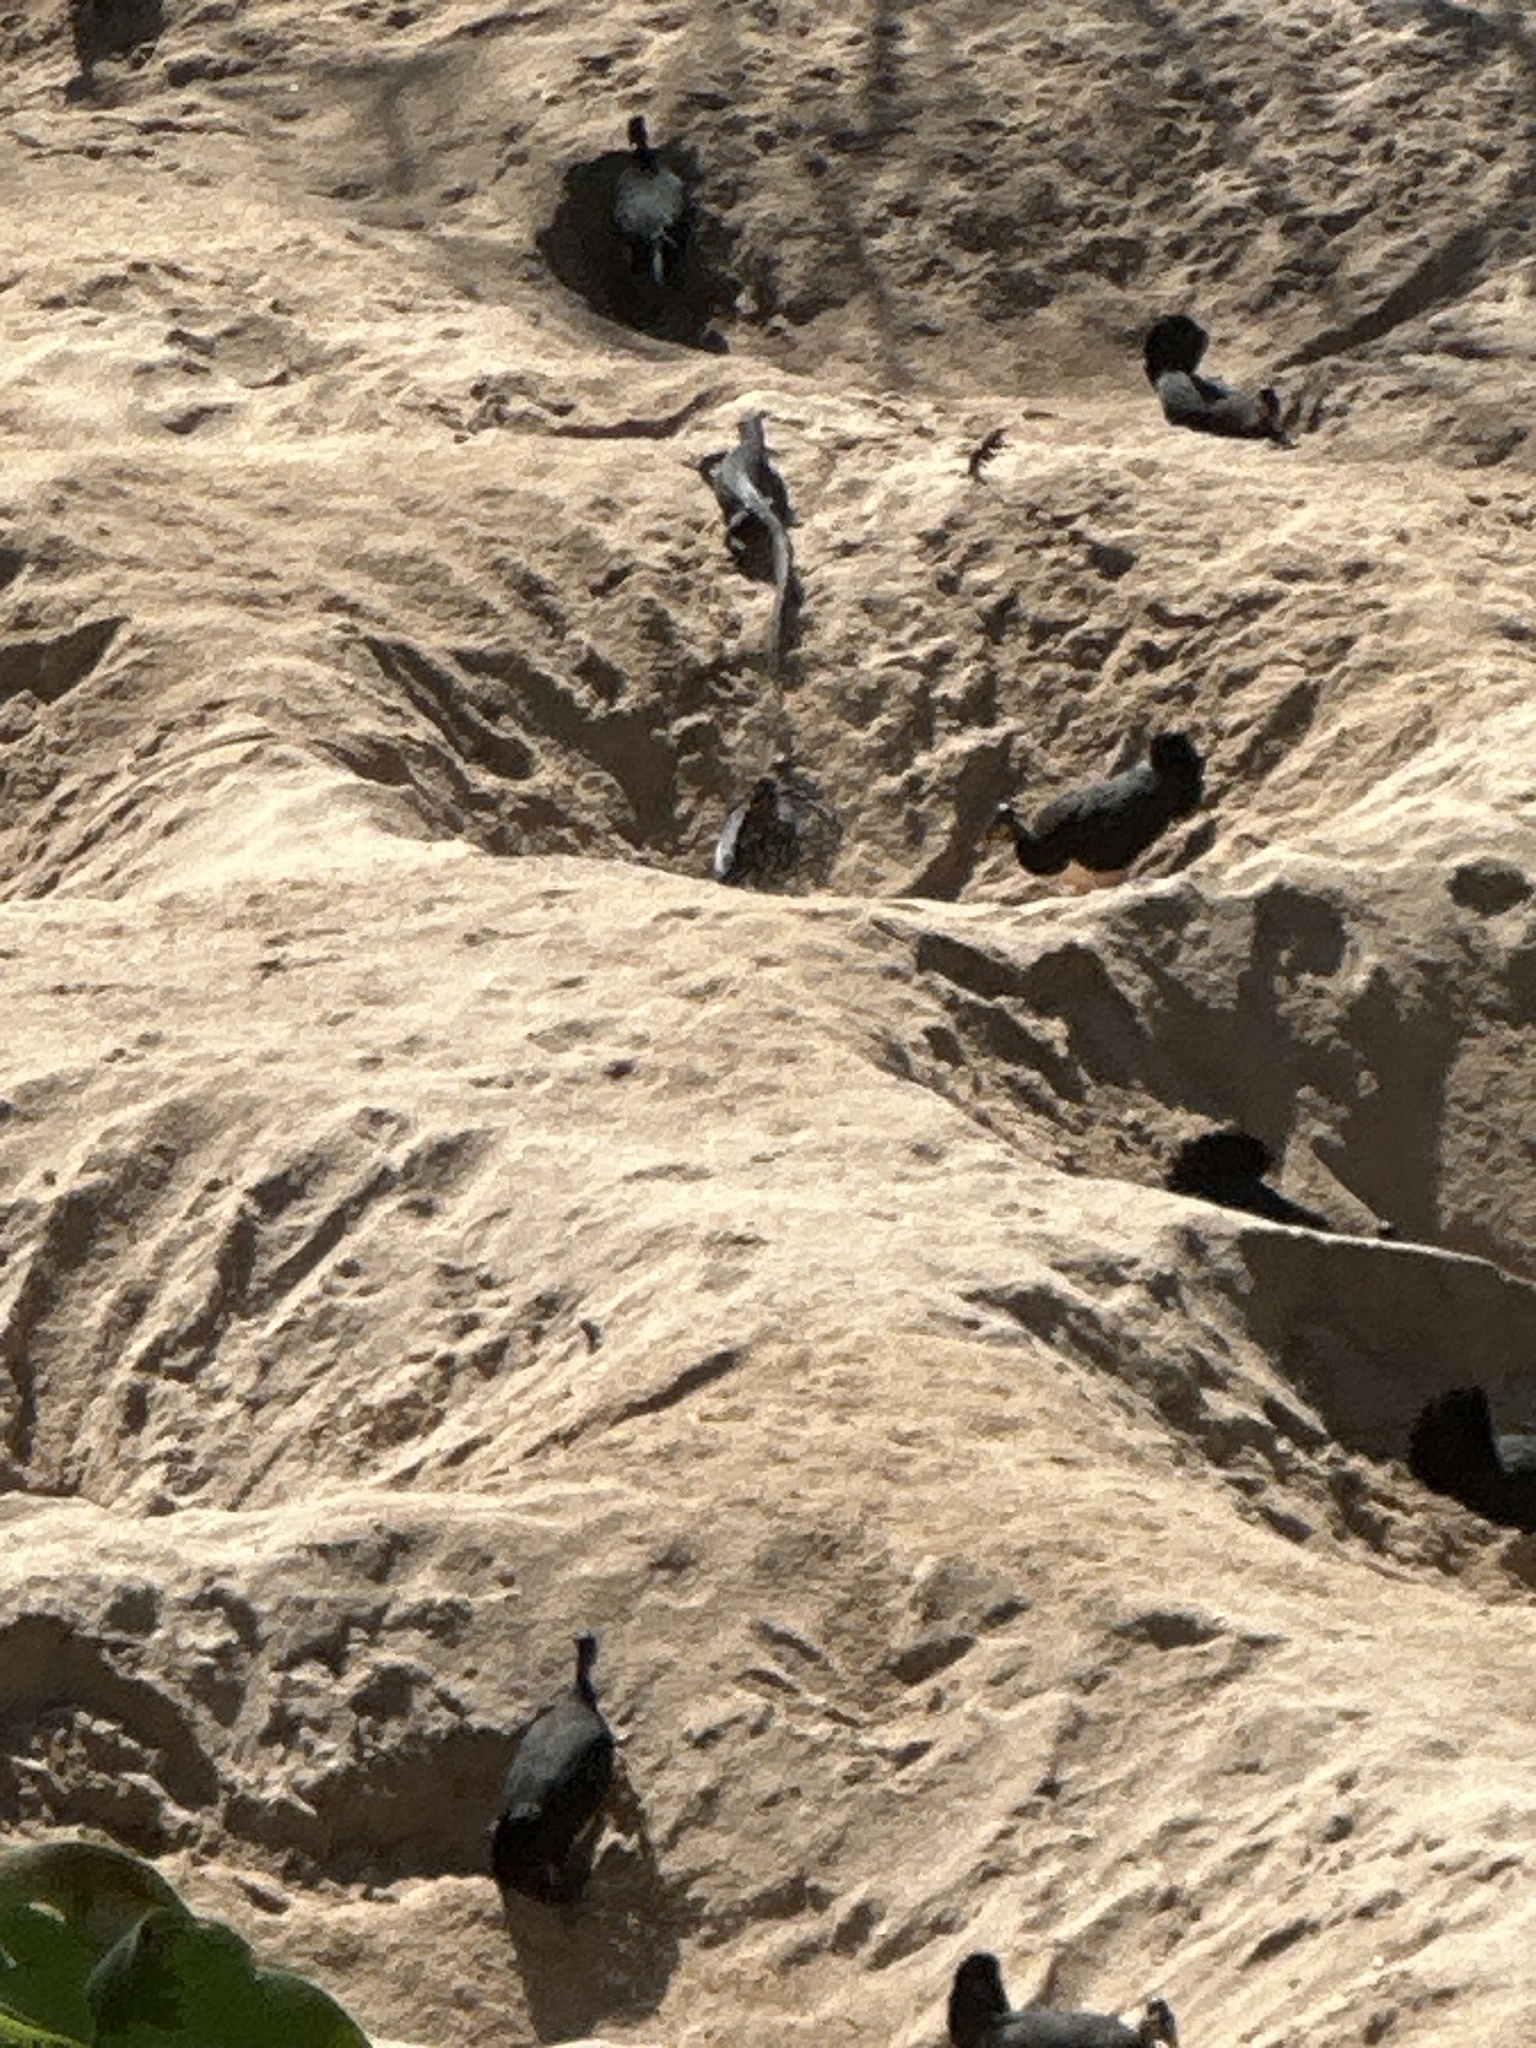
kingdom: Animalia
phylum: Chordata
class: Squamata
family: Varanidae
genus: Varanus
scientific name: Varanus togianus
